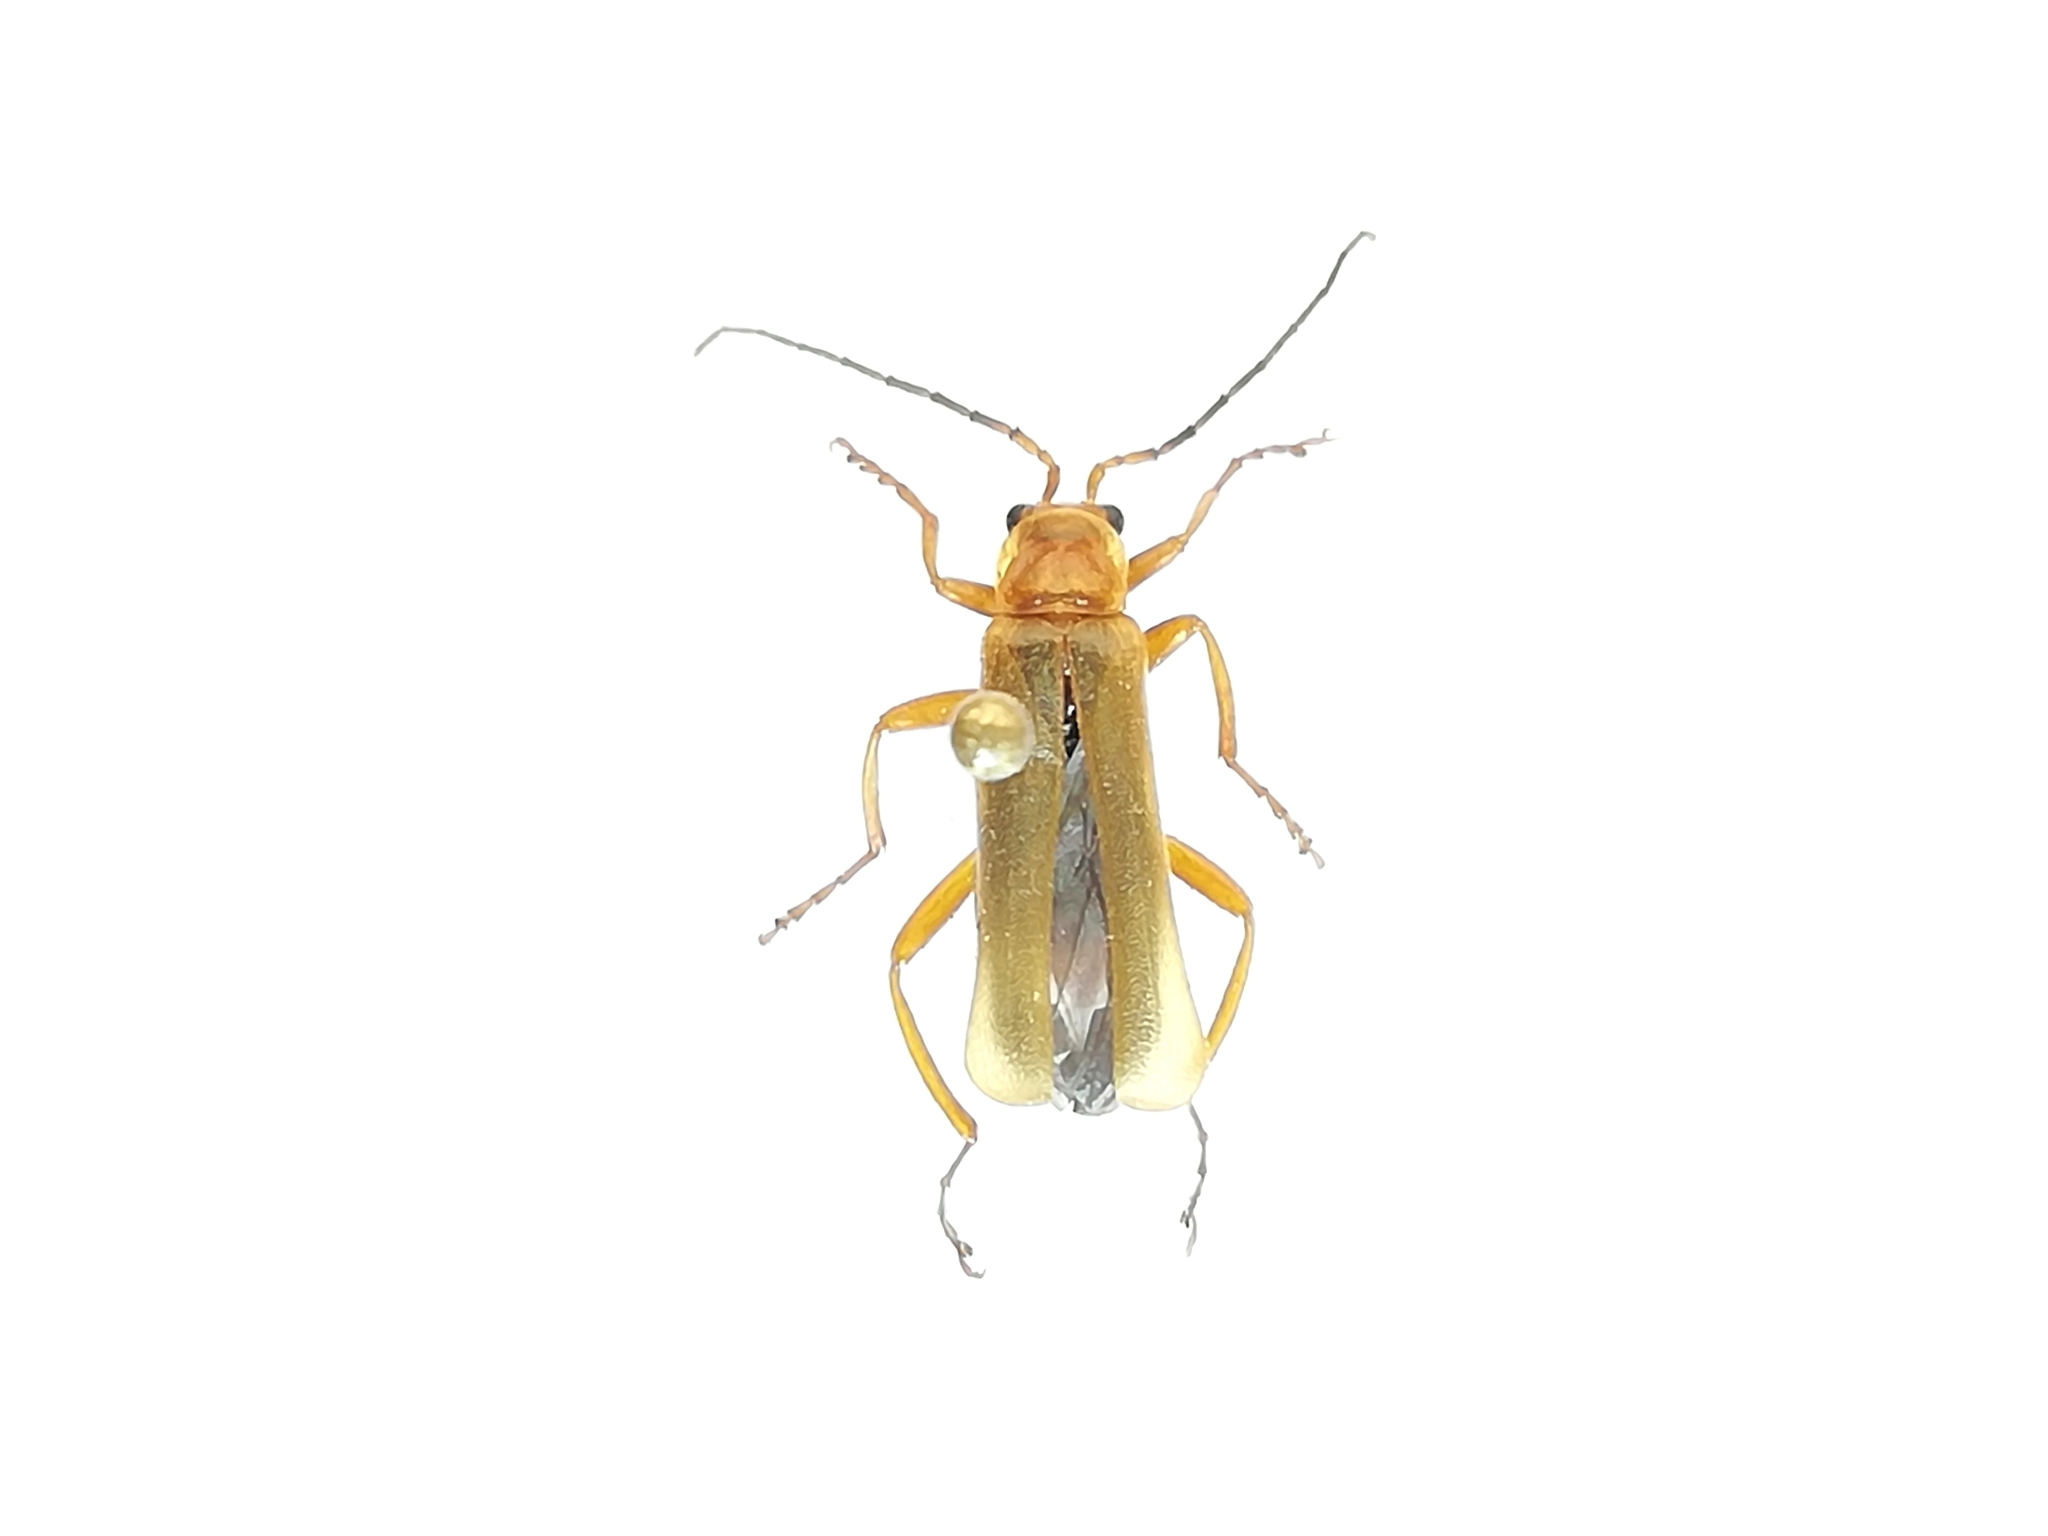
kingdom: Animalia
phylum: Arthropoda
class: Insecta
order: Coleoptera
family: Cantharidae
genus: Cantharis
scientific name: Cantharis rufa
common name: Red-spotted soldier beetle
